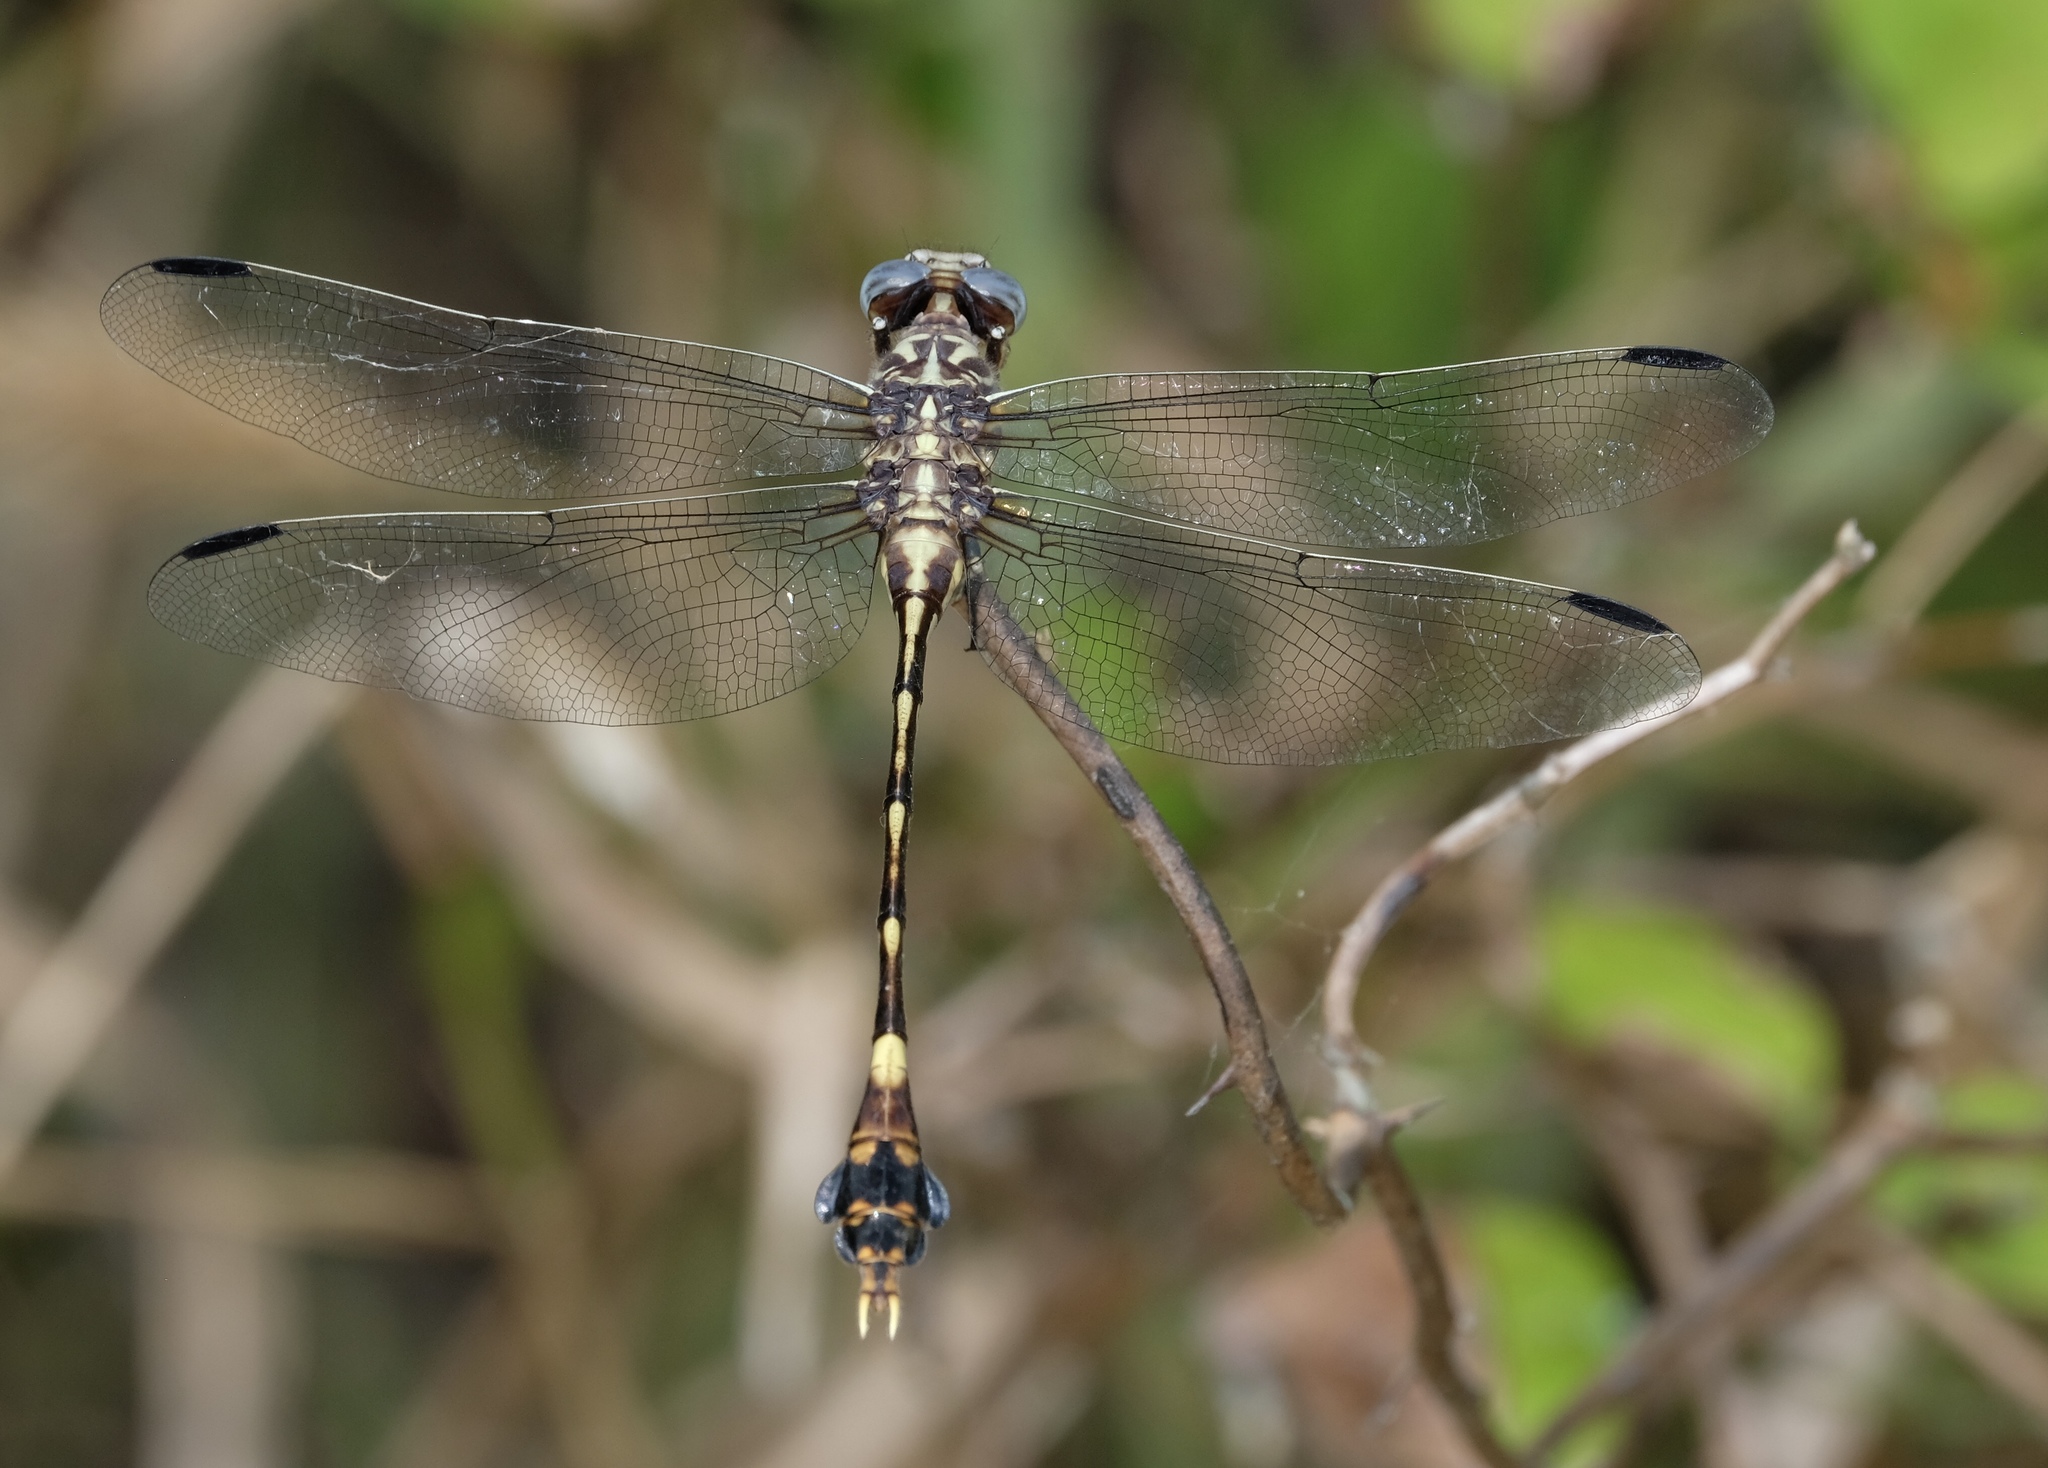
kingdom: Animalia
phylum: Arthropoda
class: Insecta
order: Odonata
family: Gomphidae
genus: Phyllogomphoides
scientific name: Phyllogomphoides albrighti
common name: Five-striped leaftail
